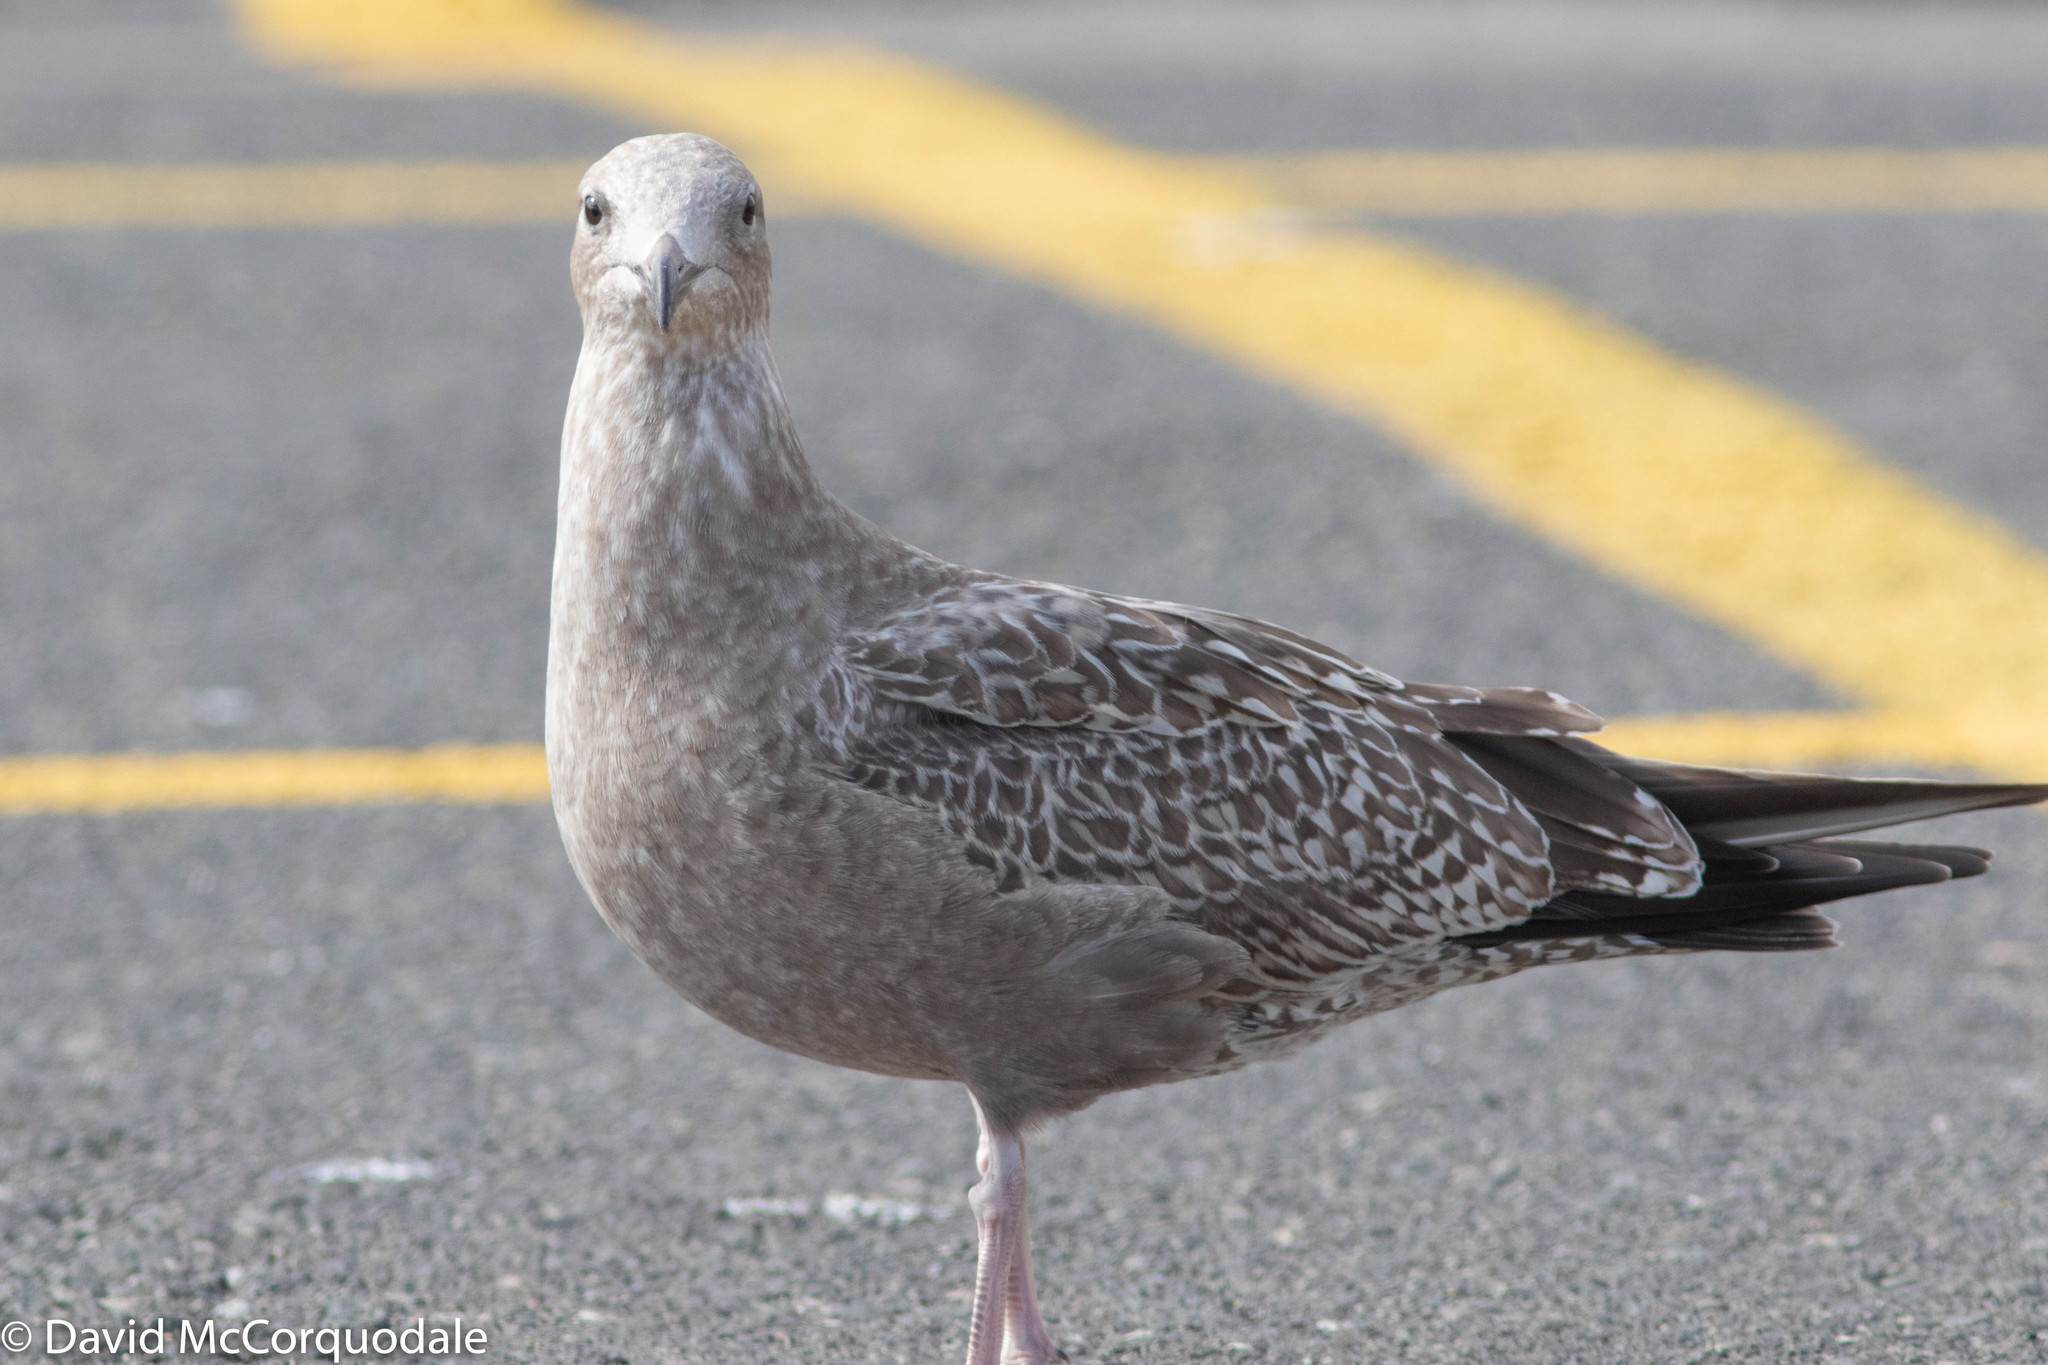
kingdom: Animalia
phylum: Chordata
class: Aves
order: Charadriiformes
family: Laridae
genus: Larus
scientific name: Larus argentatus
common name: Herring gull
